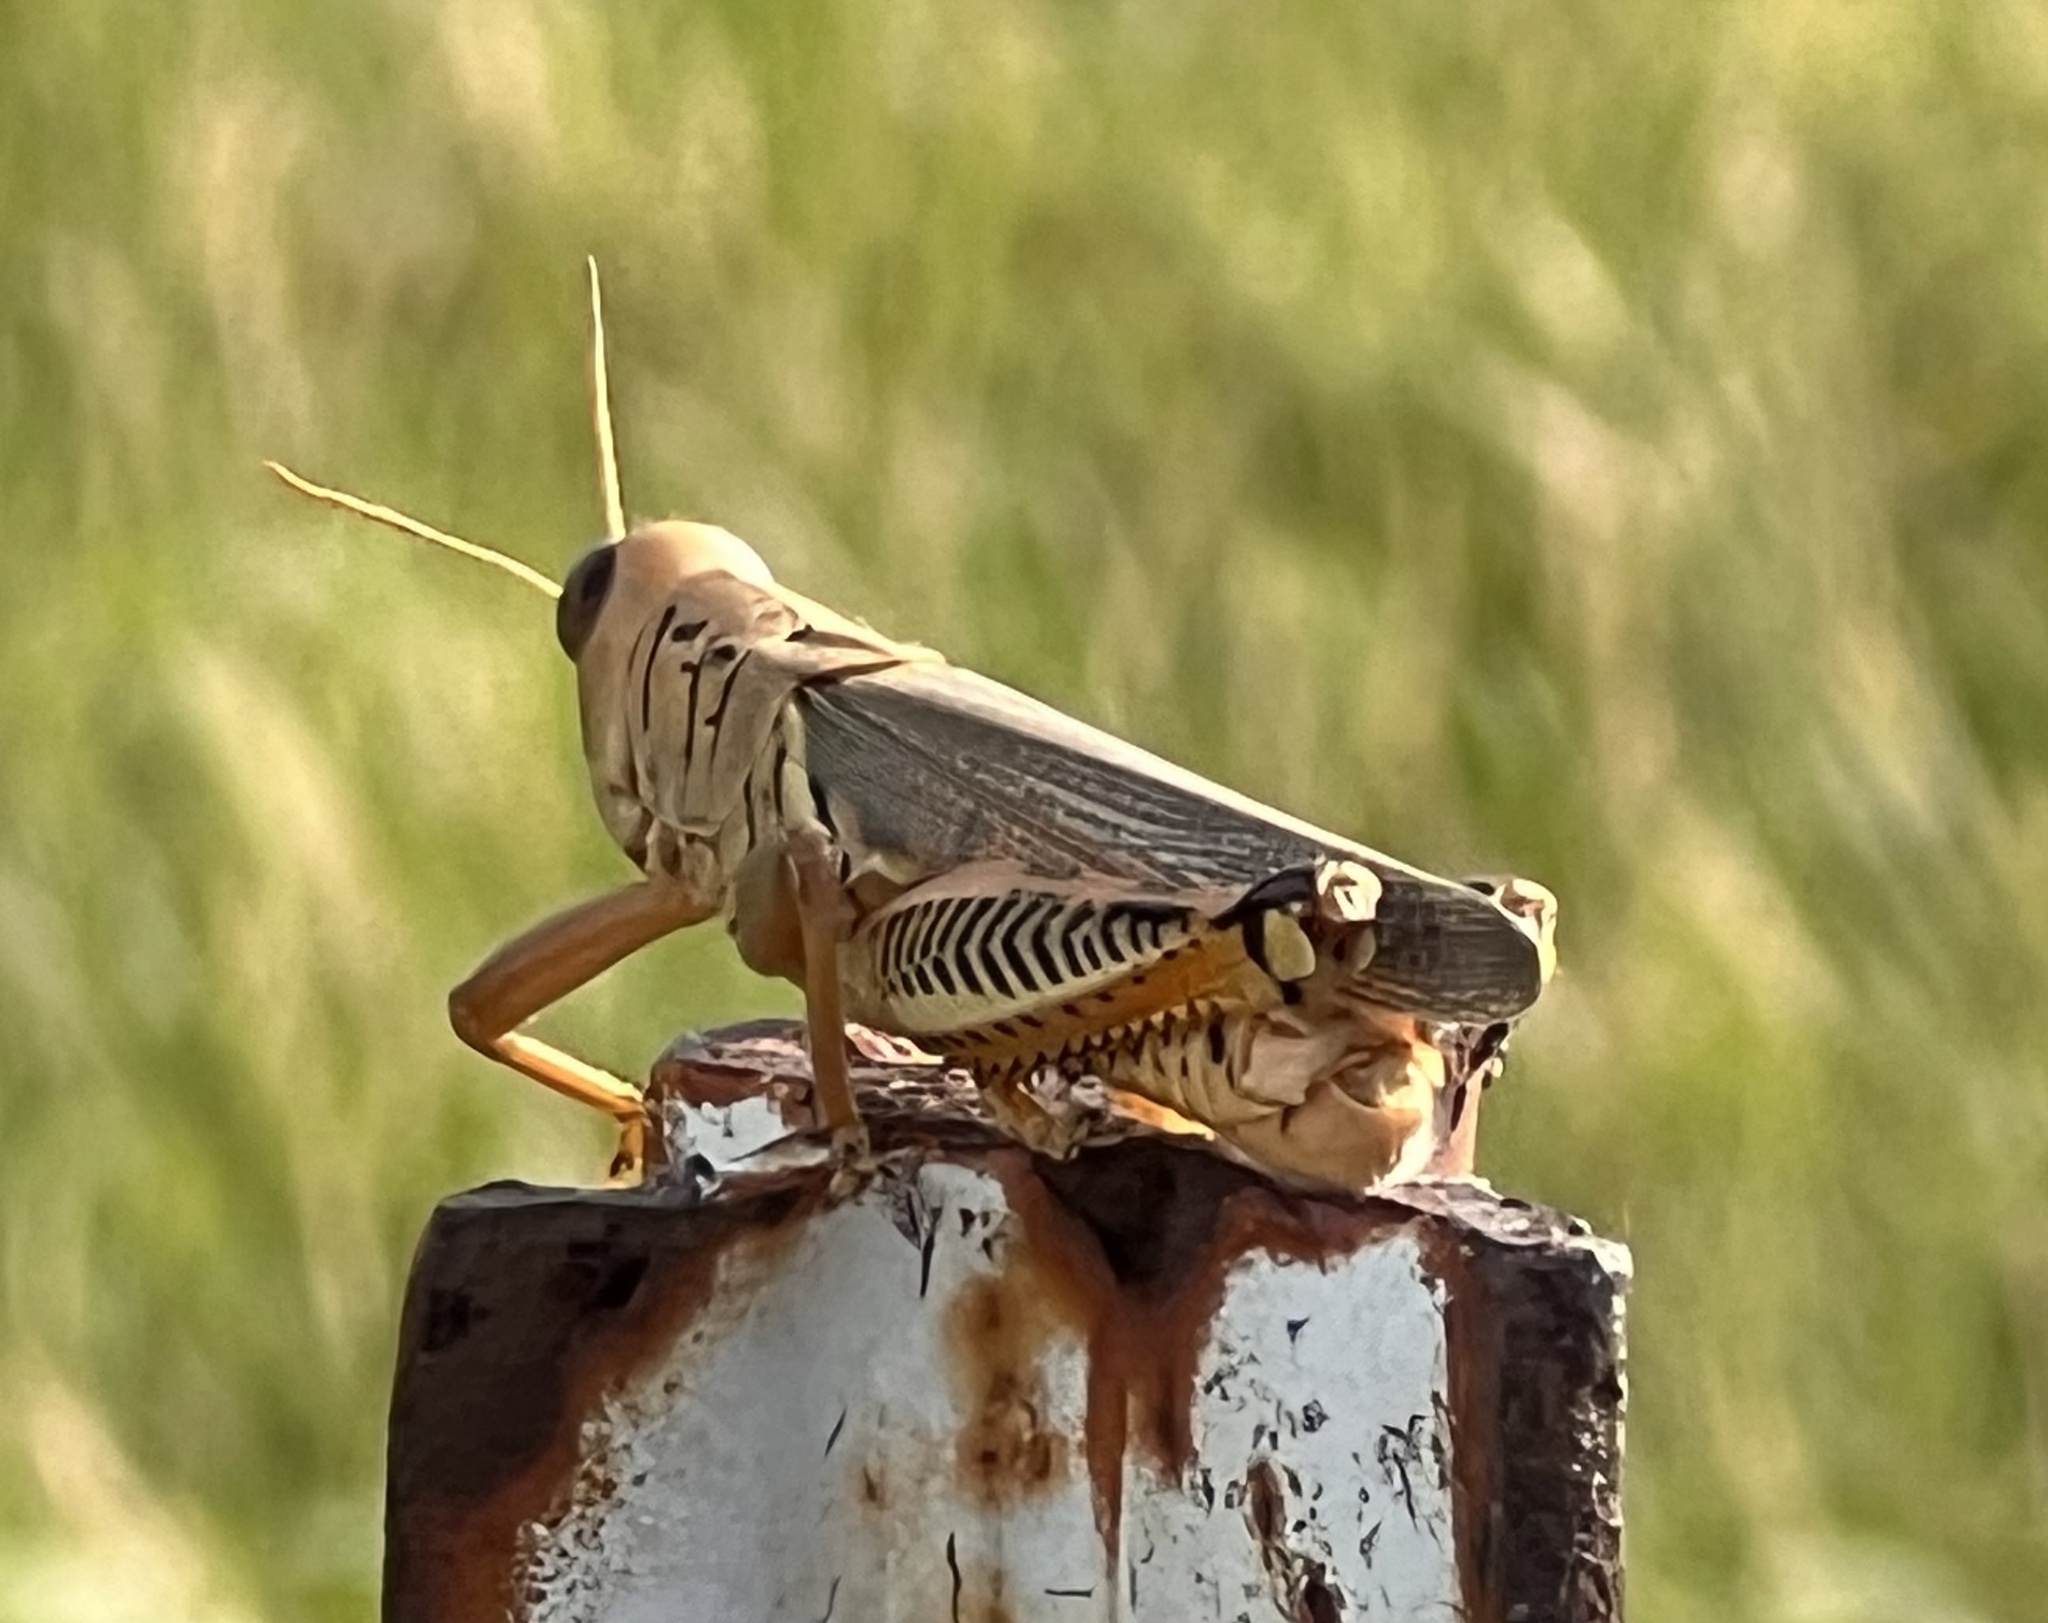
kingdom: Animalia
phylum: Arthropoda
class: Insecta
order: Orthoptera
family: Acrididae
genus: Melanoplus
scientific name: Melanoplus differentialis
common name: Differential grasshopper
